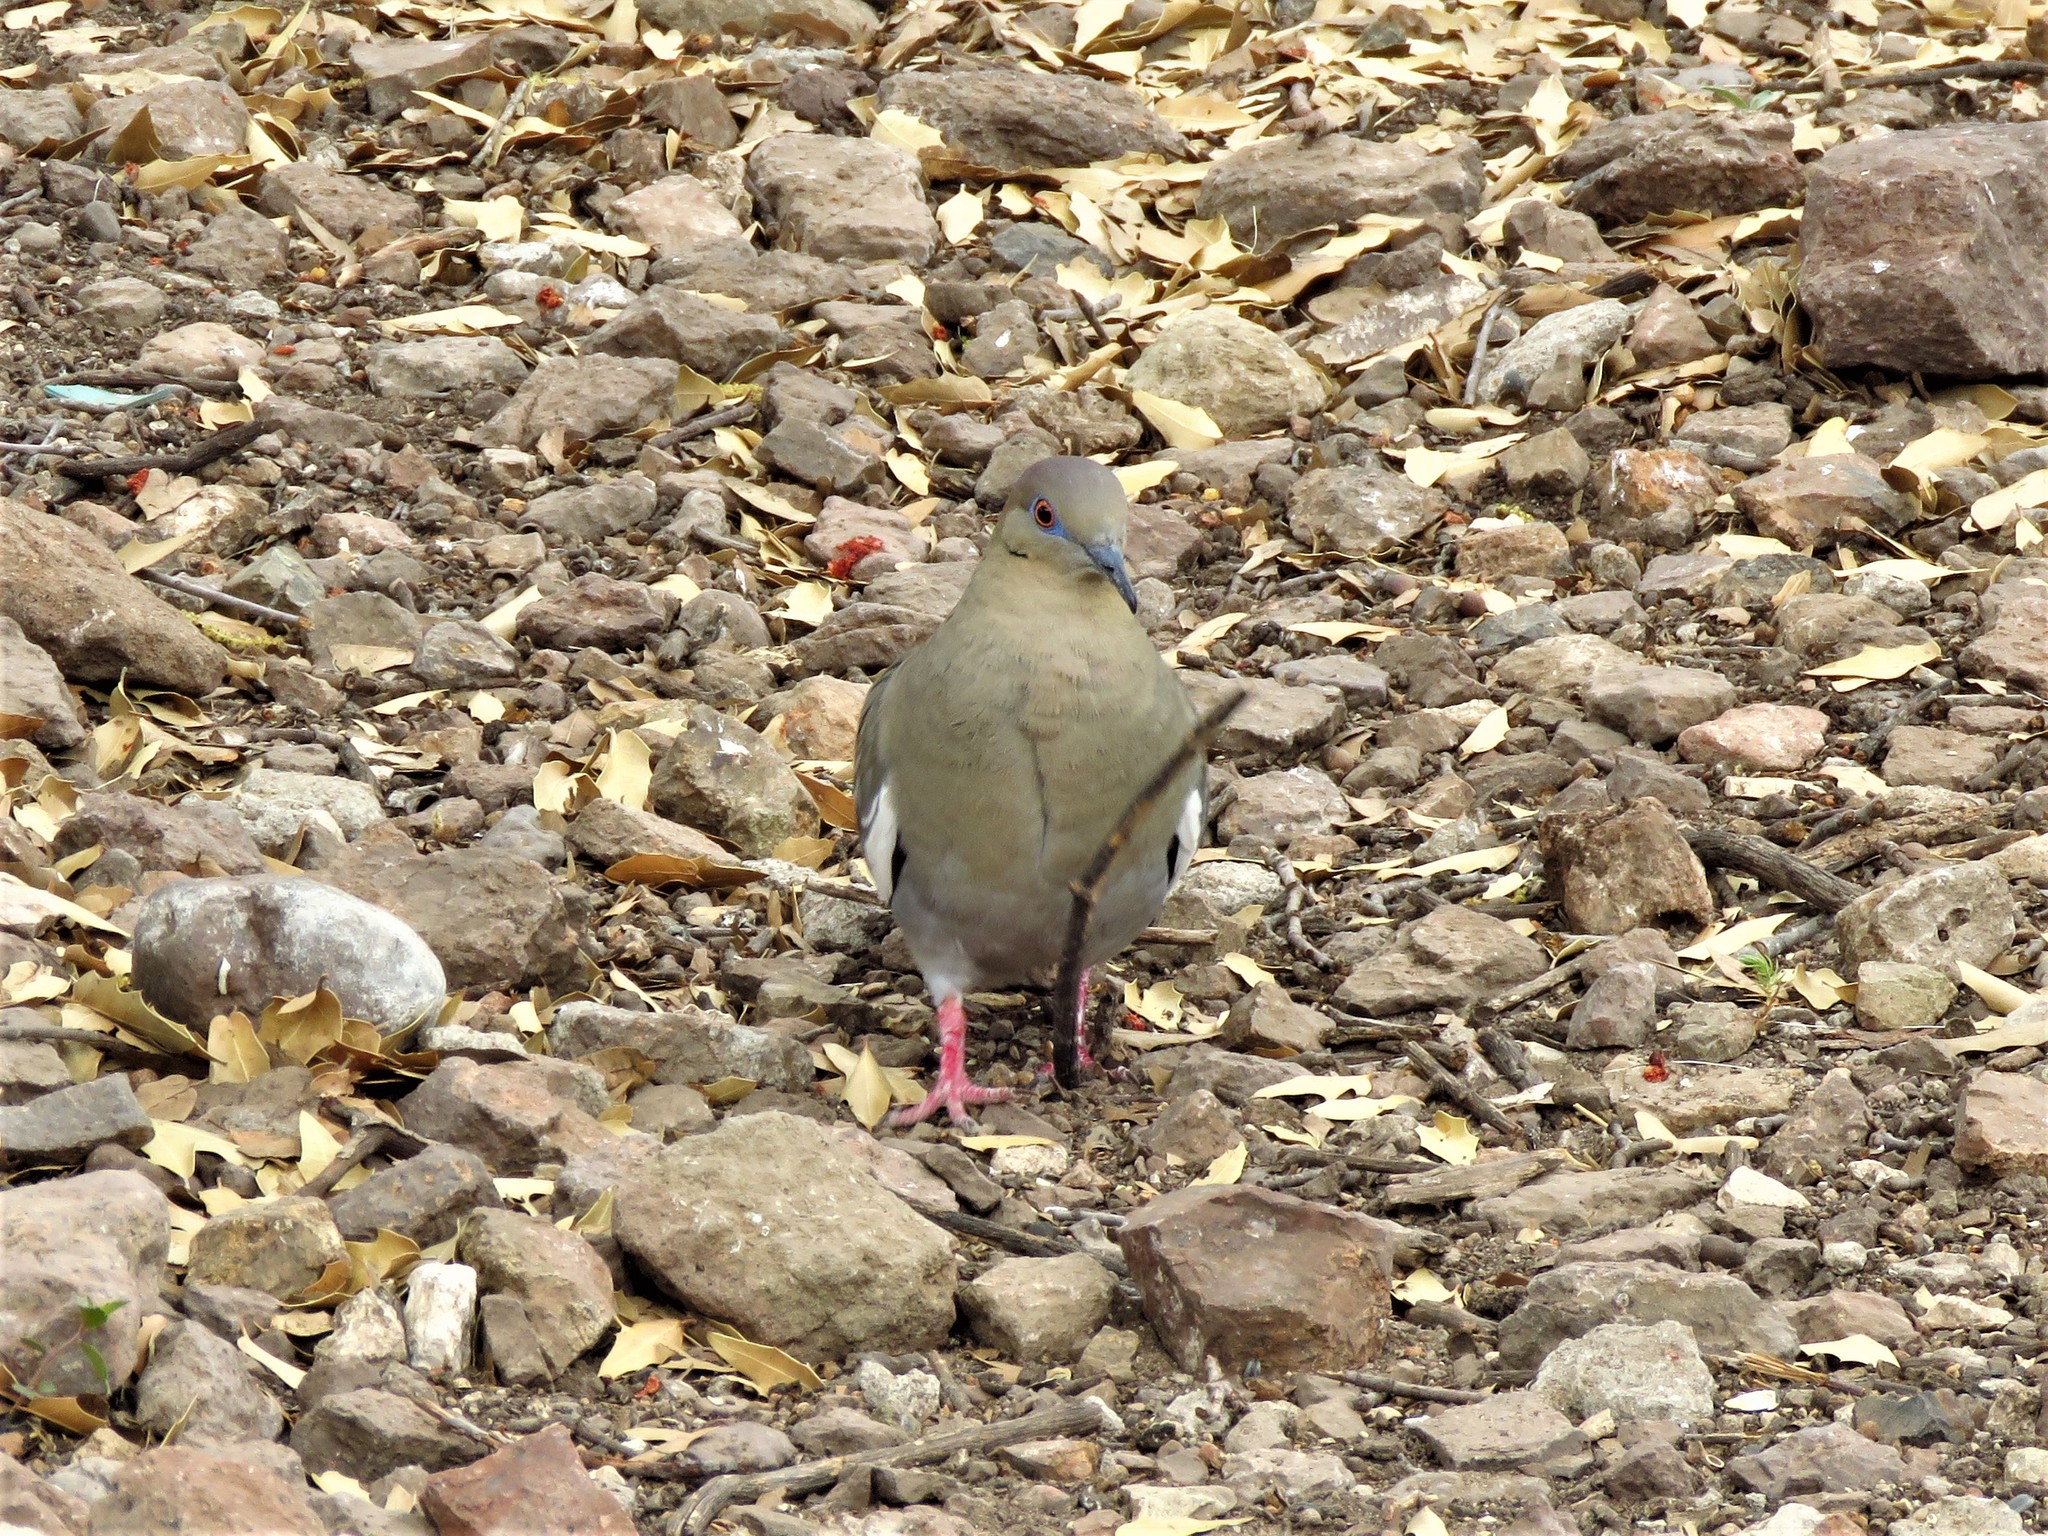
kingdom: Animalia
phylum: Chordata
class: Aves
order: Columbiformes
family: Columbidae
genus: Zenaida
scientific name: Zenaida asiatica
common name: White-winged dove
